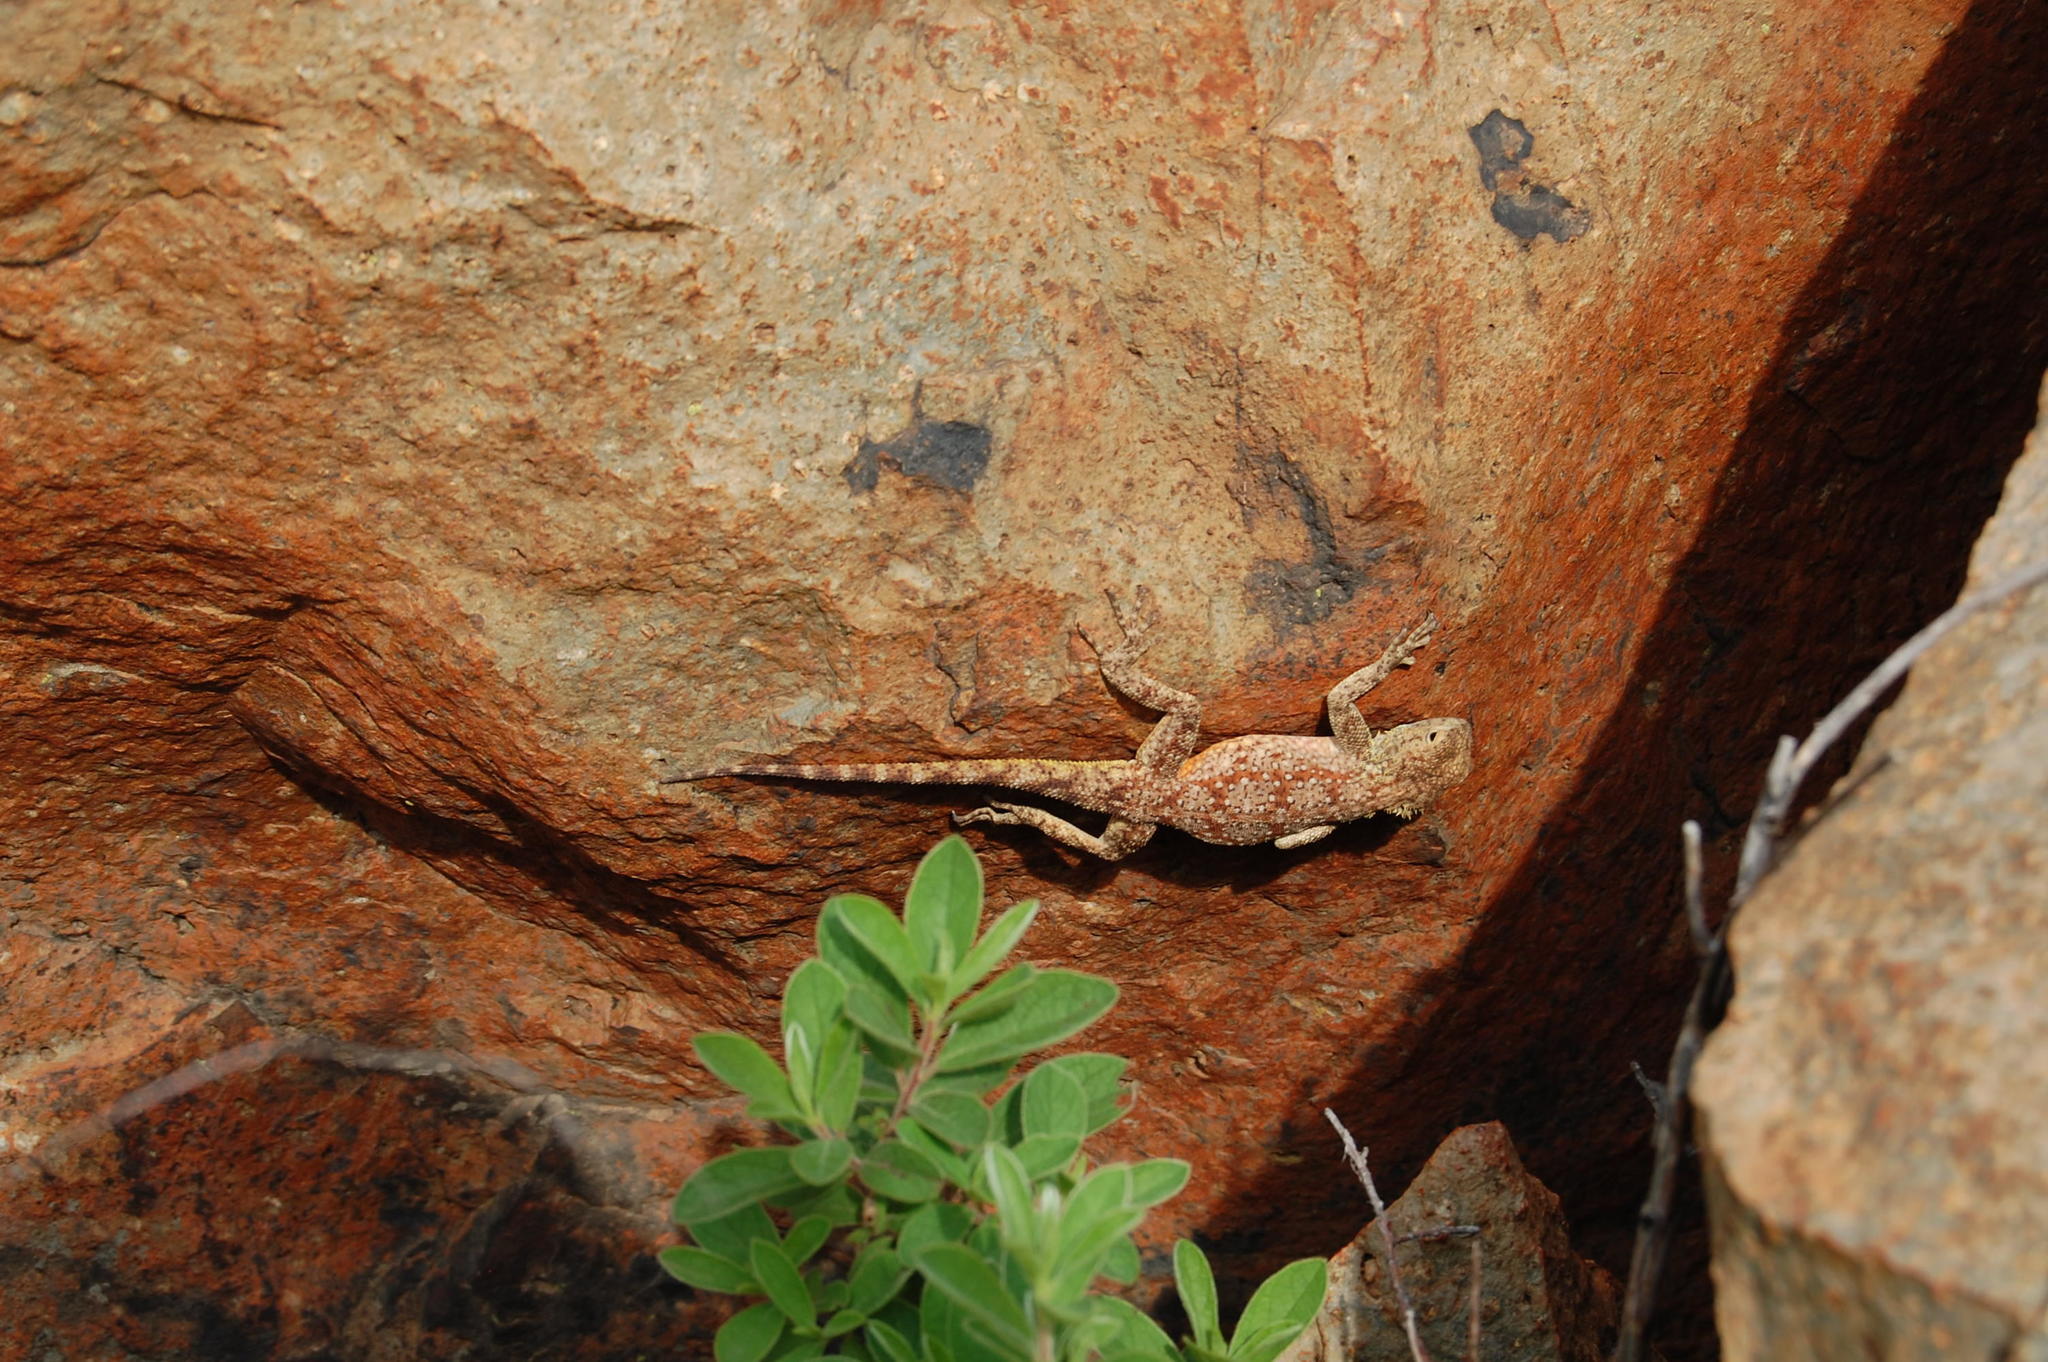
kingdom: Animalia
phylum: Chordata
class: Squamata
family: Agamidae
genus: Agama
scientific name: Agama atra
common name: Southern african rock agama
